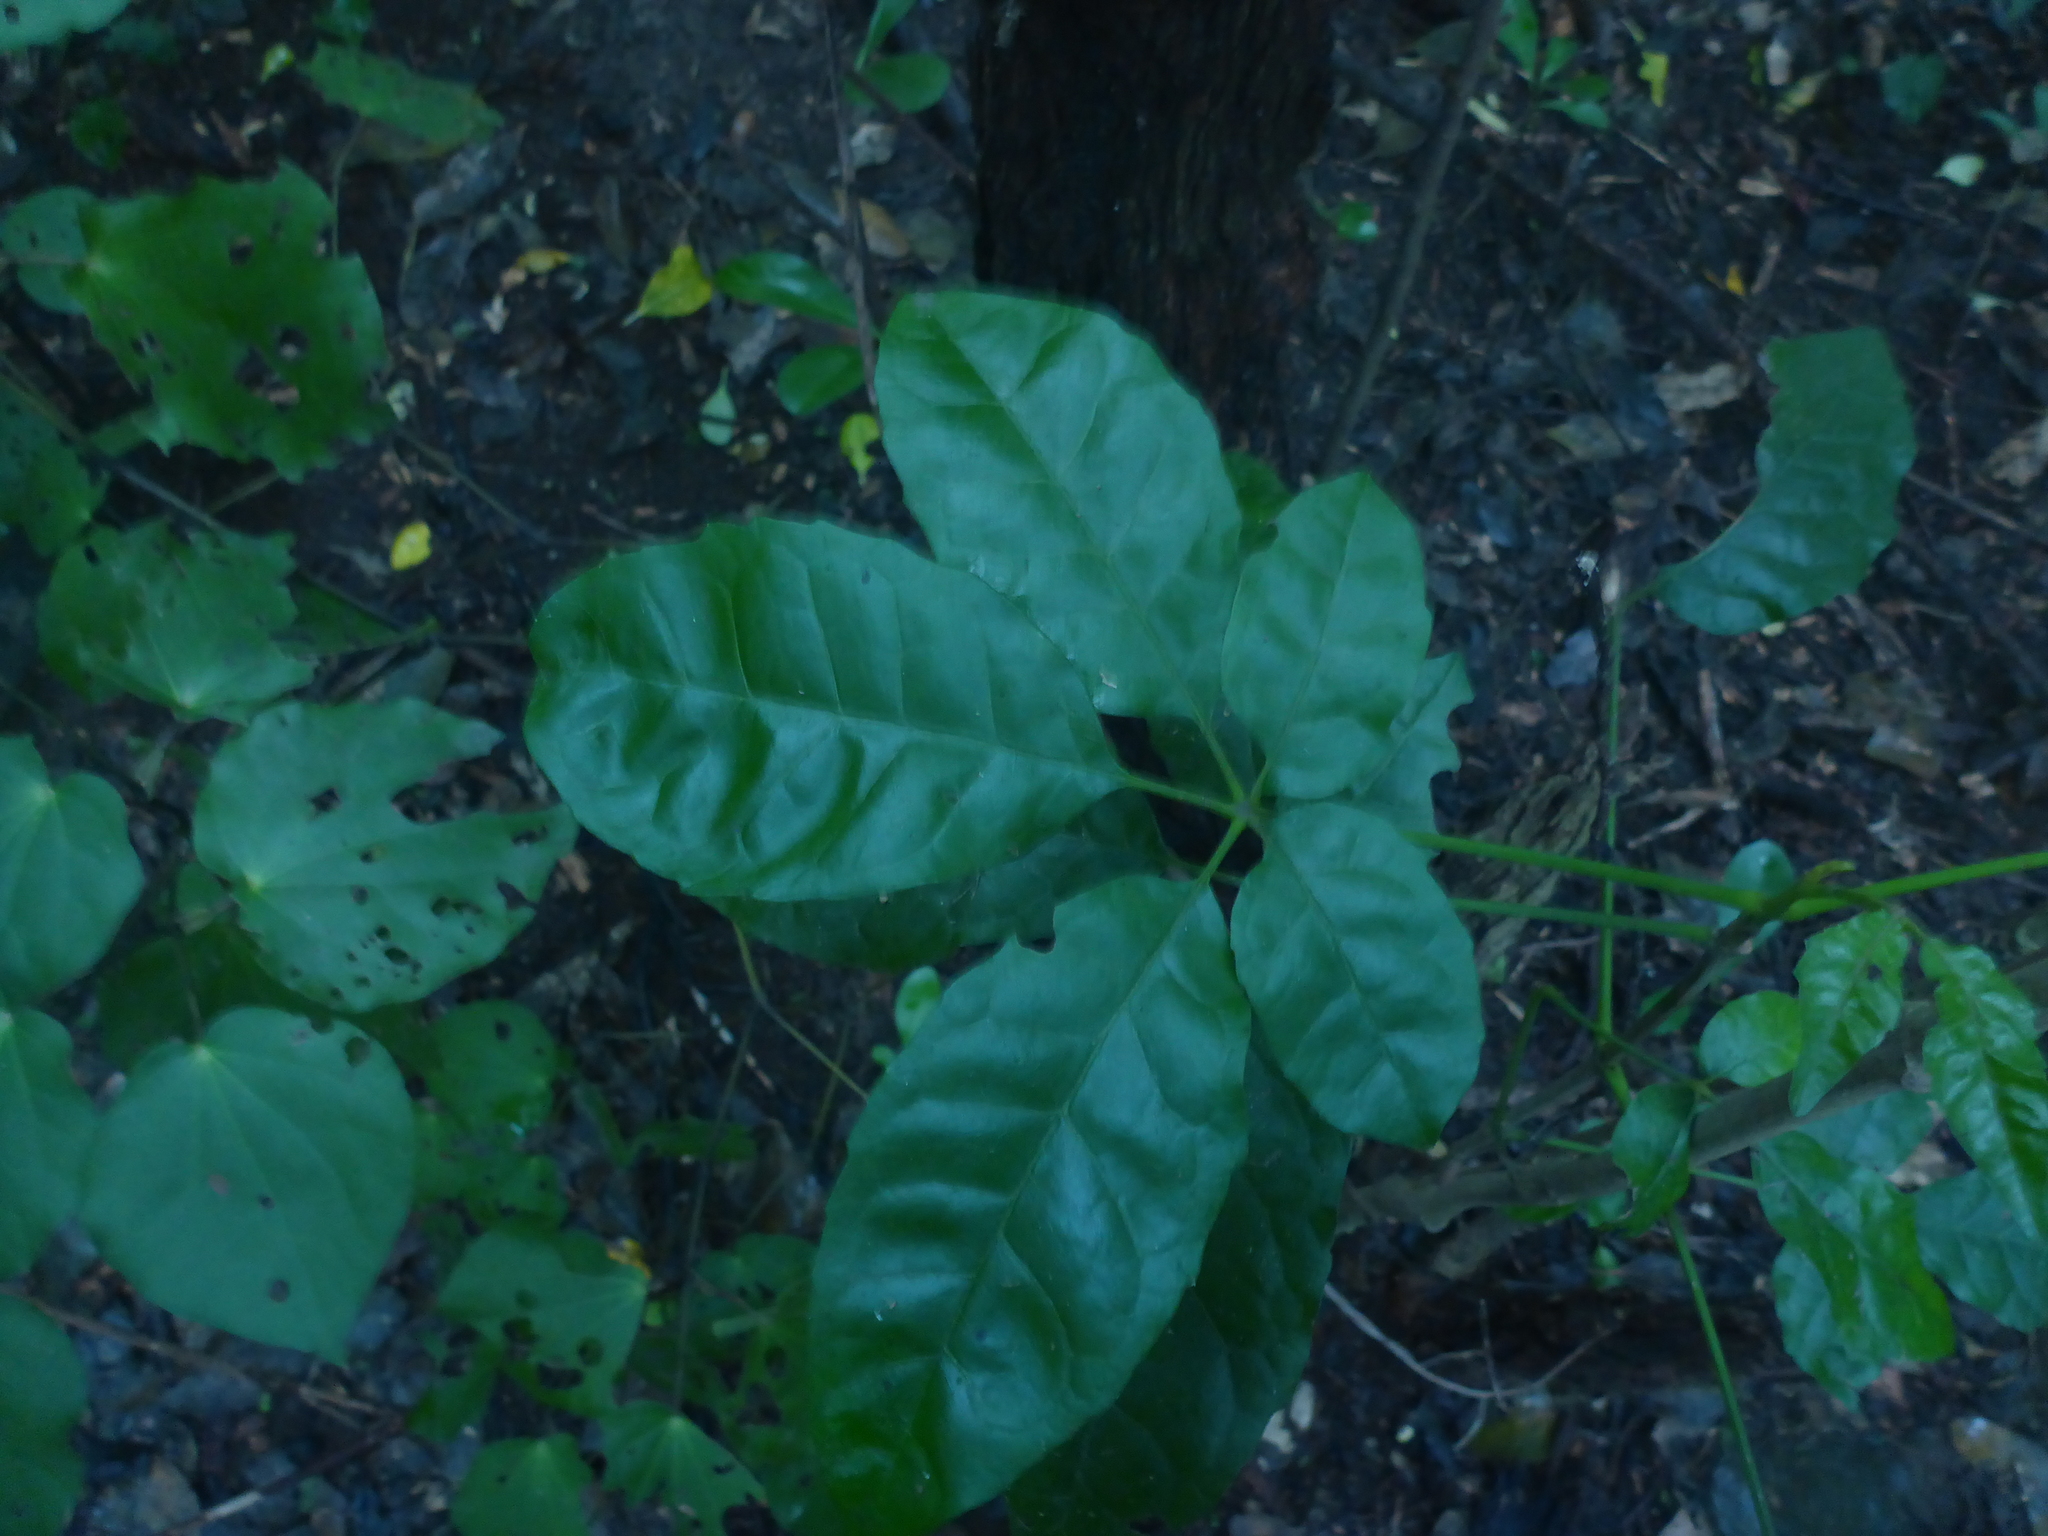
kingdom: Plantae
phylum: Tracheophyta
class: Magnoliopsida
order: Lamiales
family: Lamiaceae
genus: Vitex
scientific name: Vitex lucens
